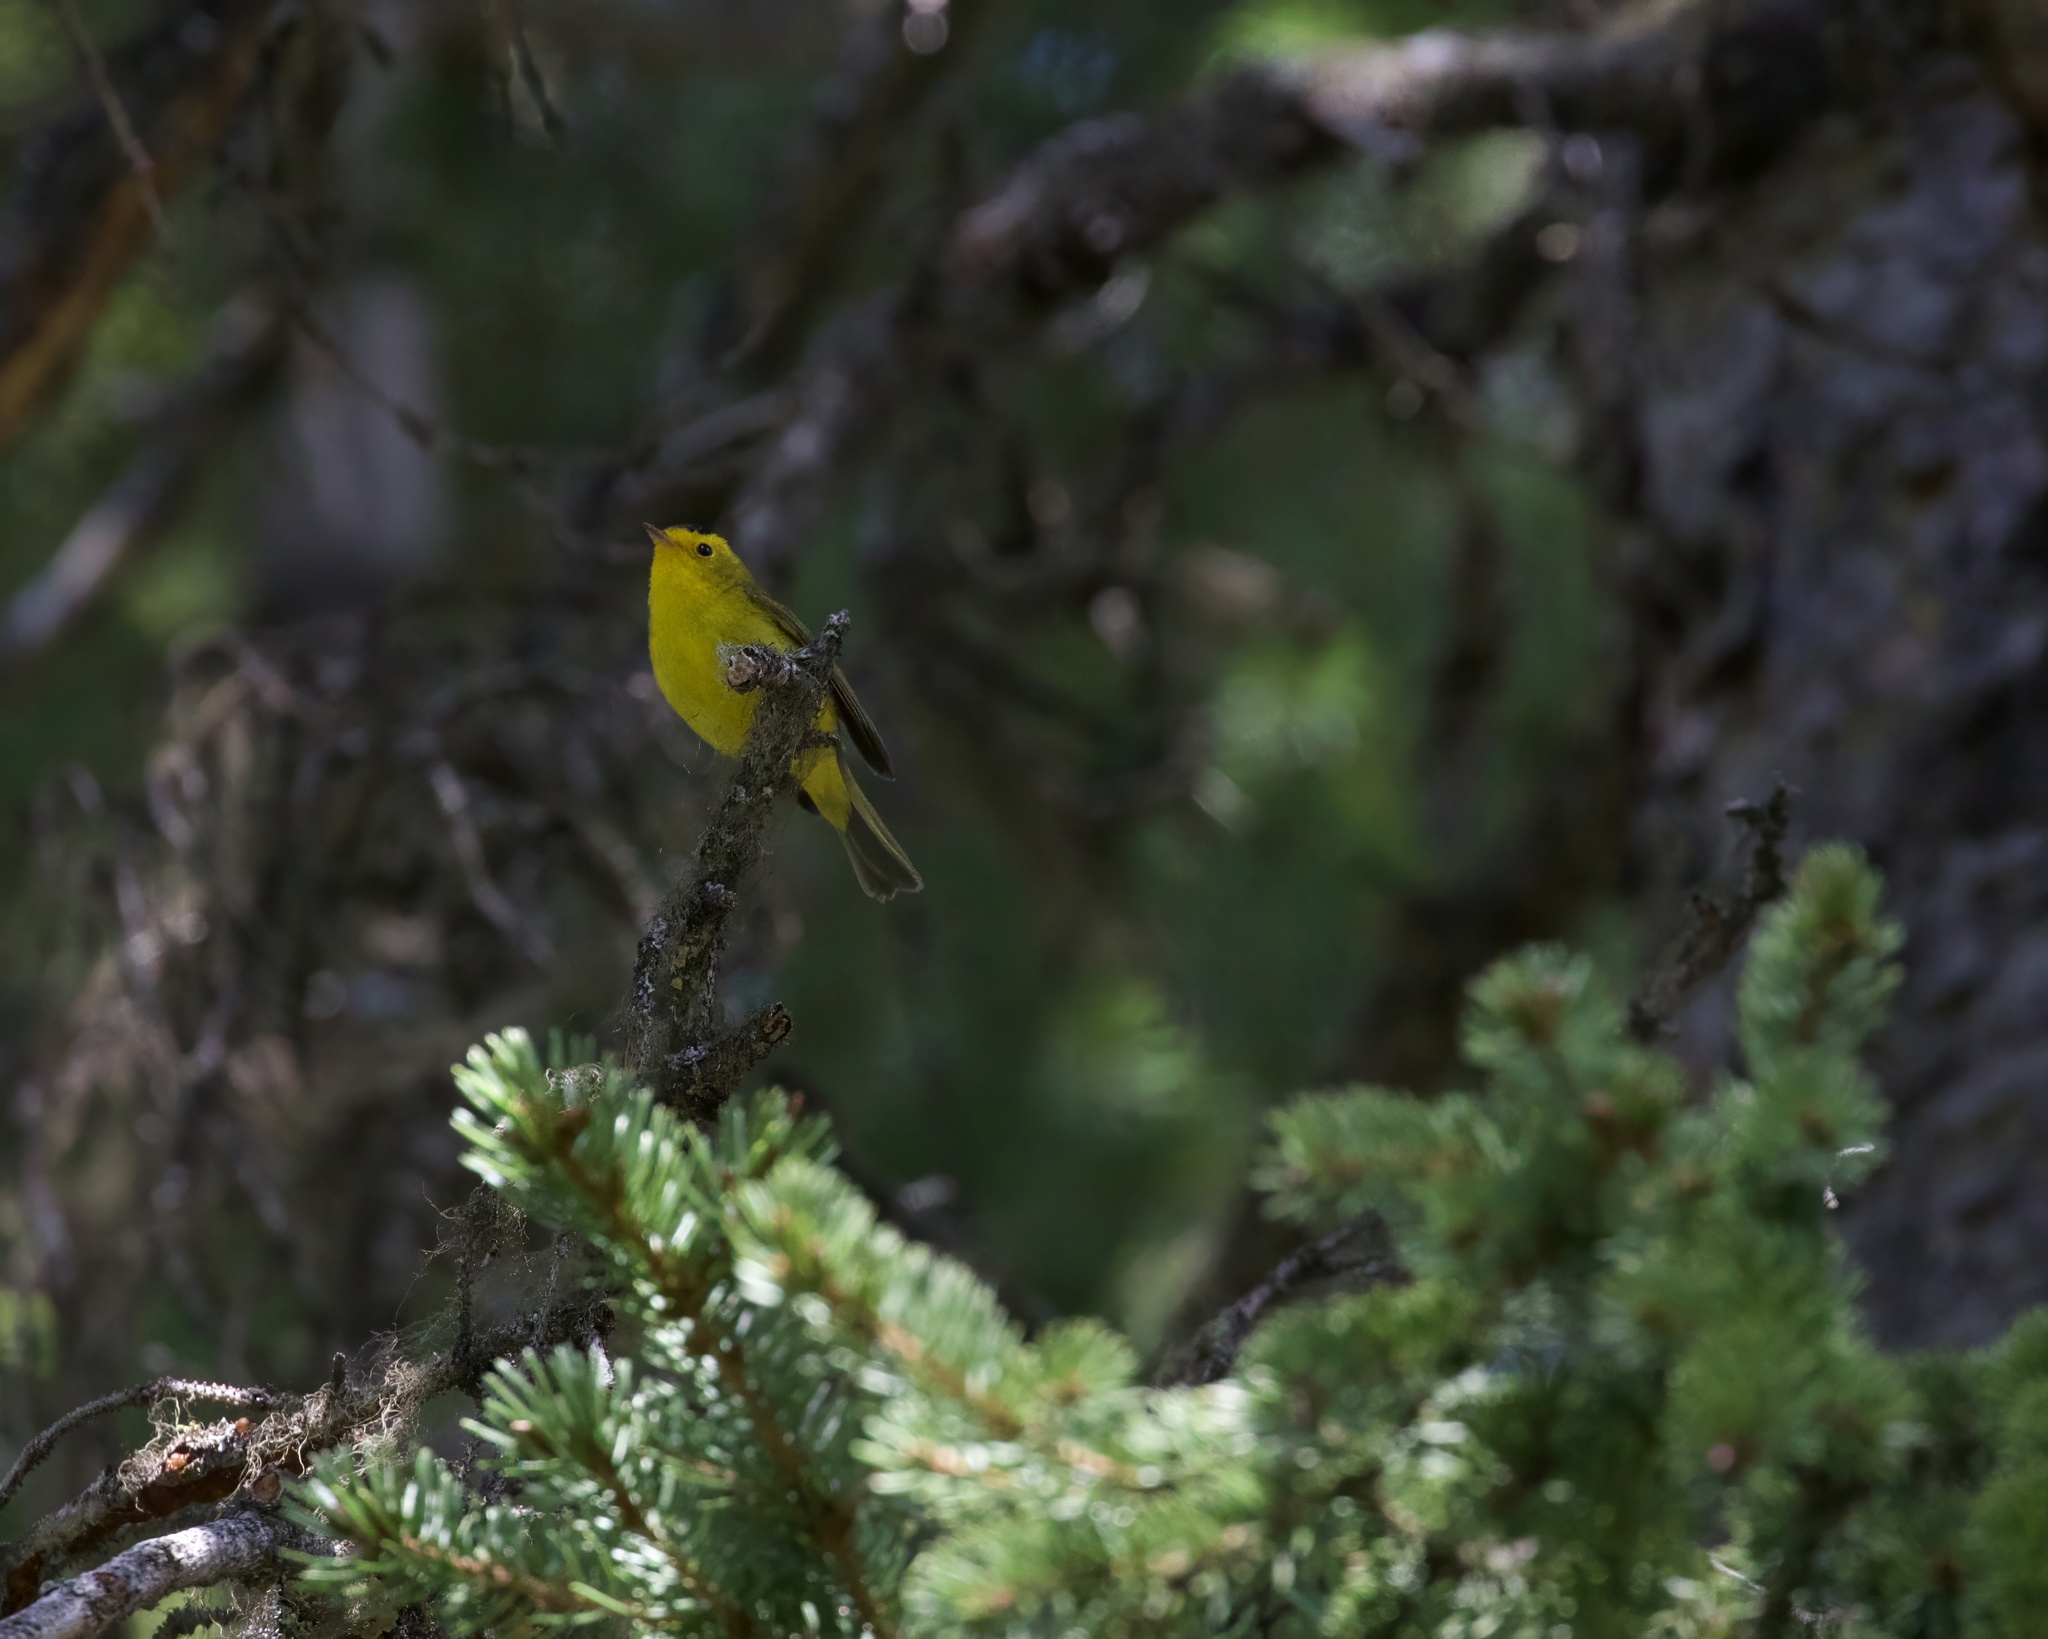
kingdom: Animalia
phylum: Chordata
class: Aves
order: Passeriformes
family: Parulidae
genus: Cardellina
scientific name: Cardellina pusilla
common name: Wilson's warbler
